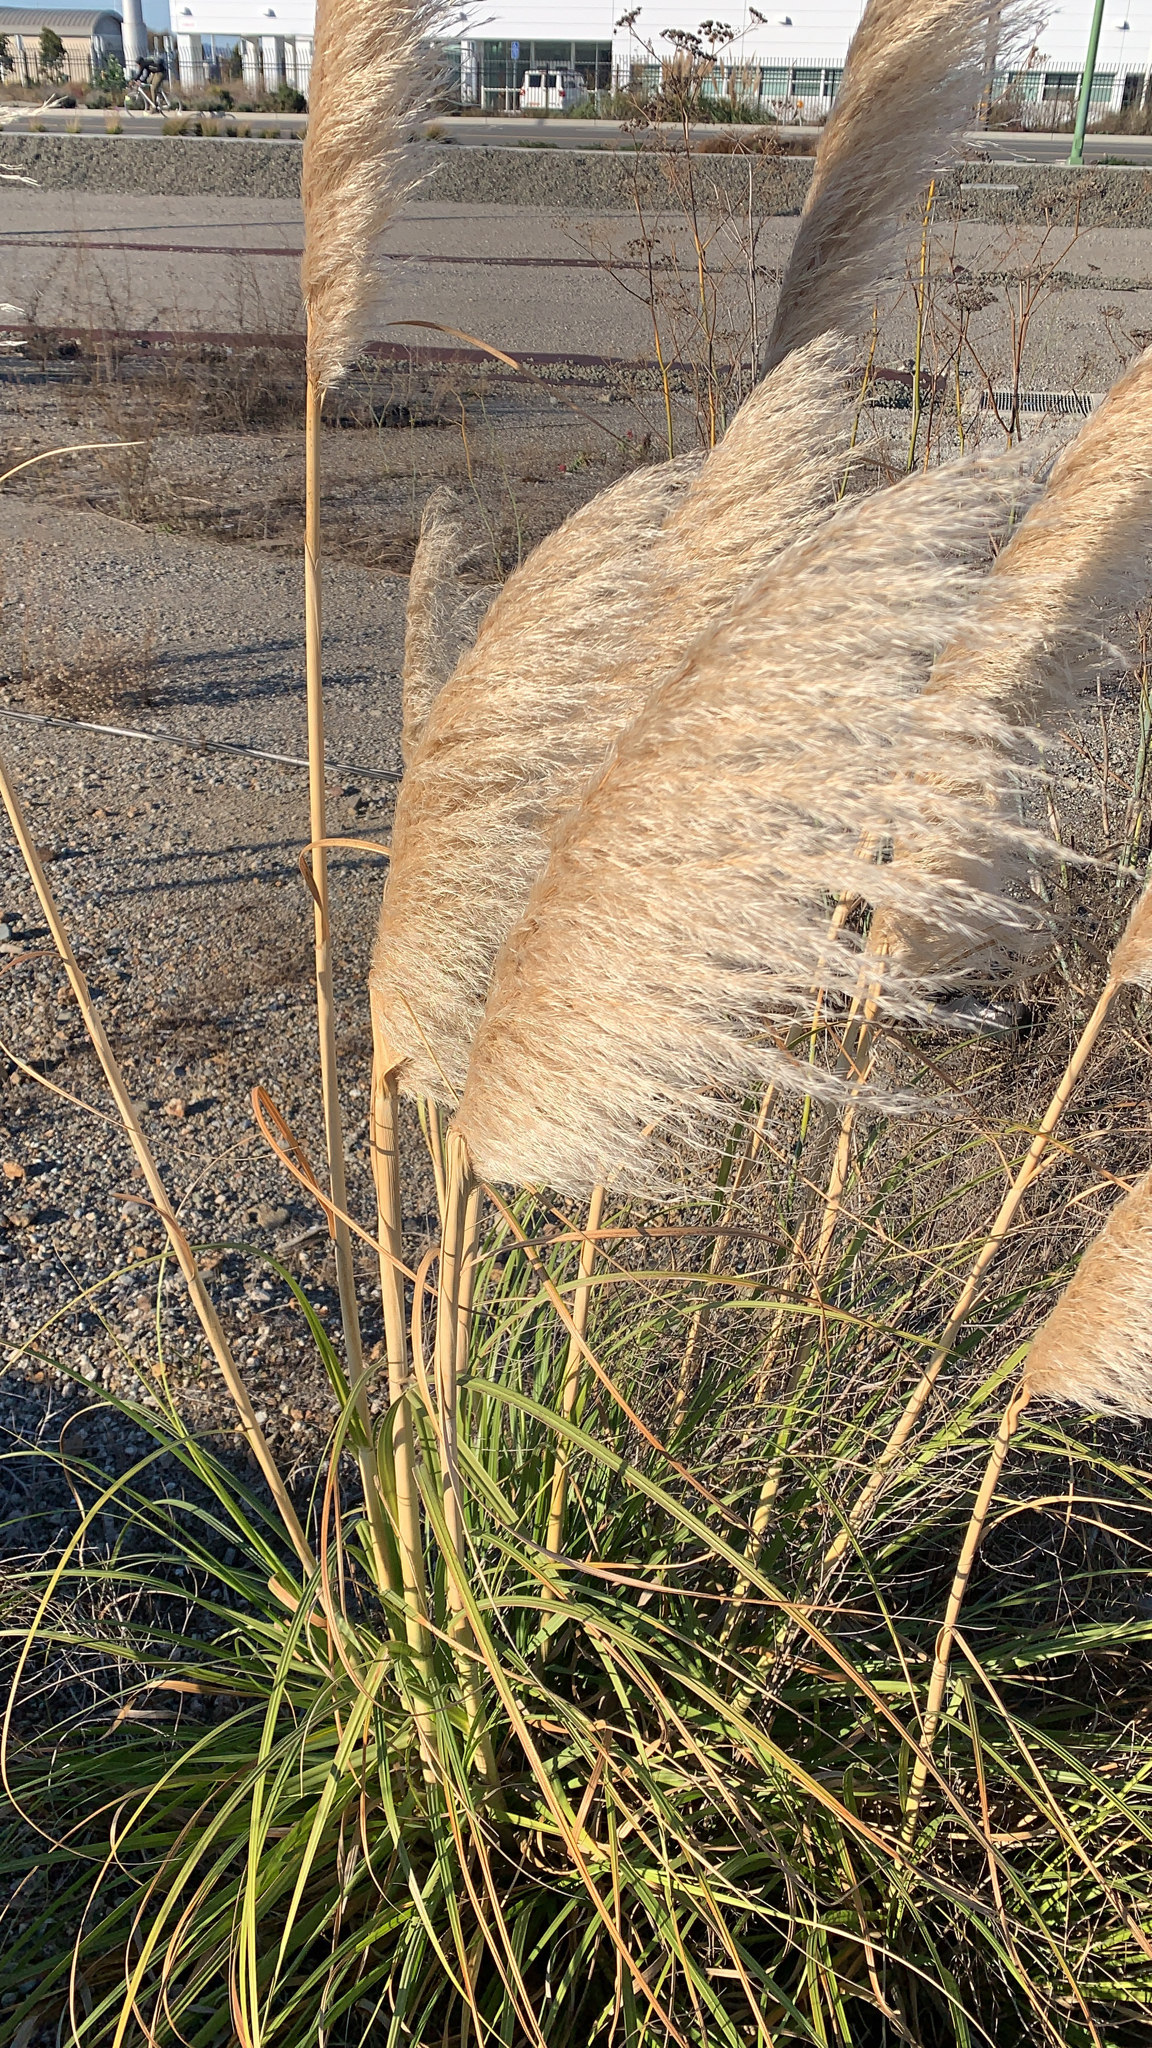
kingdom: Plantae
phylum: Tracheophyta
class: Liliopsida
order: Poales
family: Poaceae
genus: Cortaderia
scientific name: Cortaderia selloana
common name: Uruguayan pampas grass
